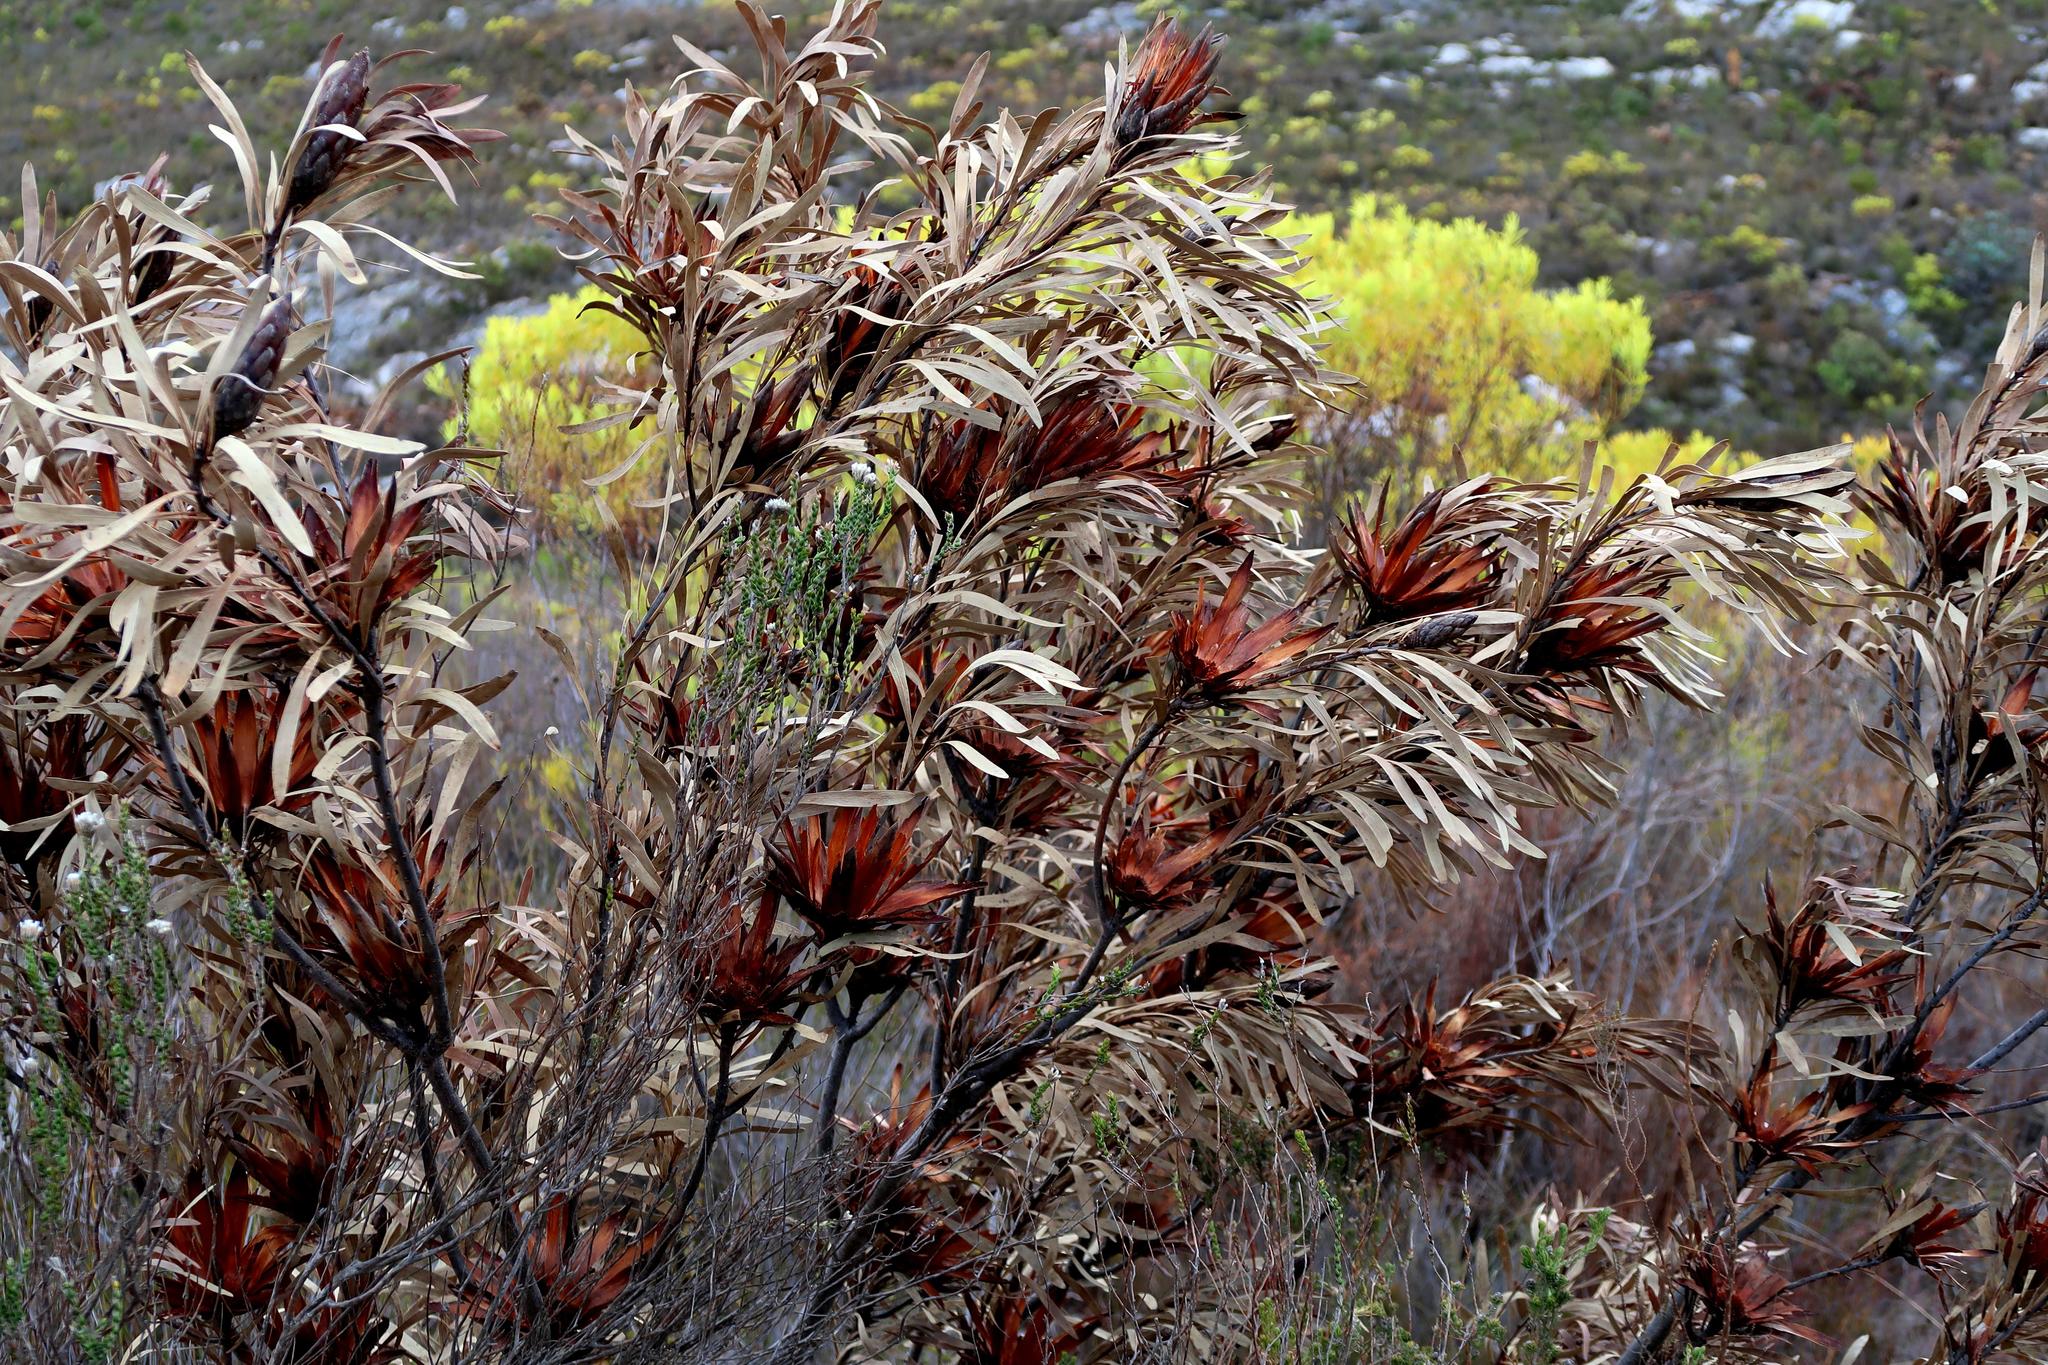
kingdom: Plantae
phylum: Tracheophyta
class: Magnoliopsida
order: Proteales
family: Proteaceae
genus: Protea
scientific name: Protea repens
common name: Sugarbush
